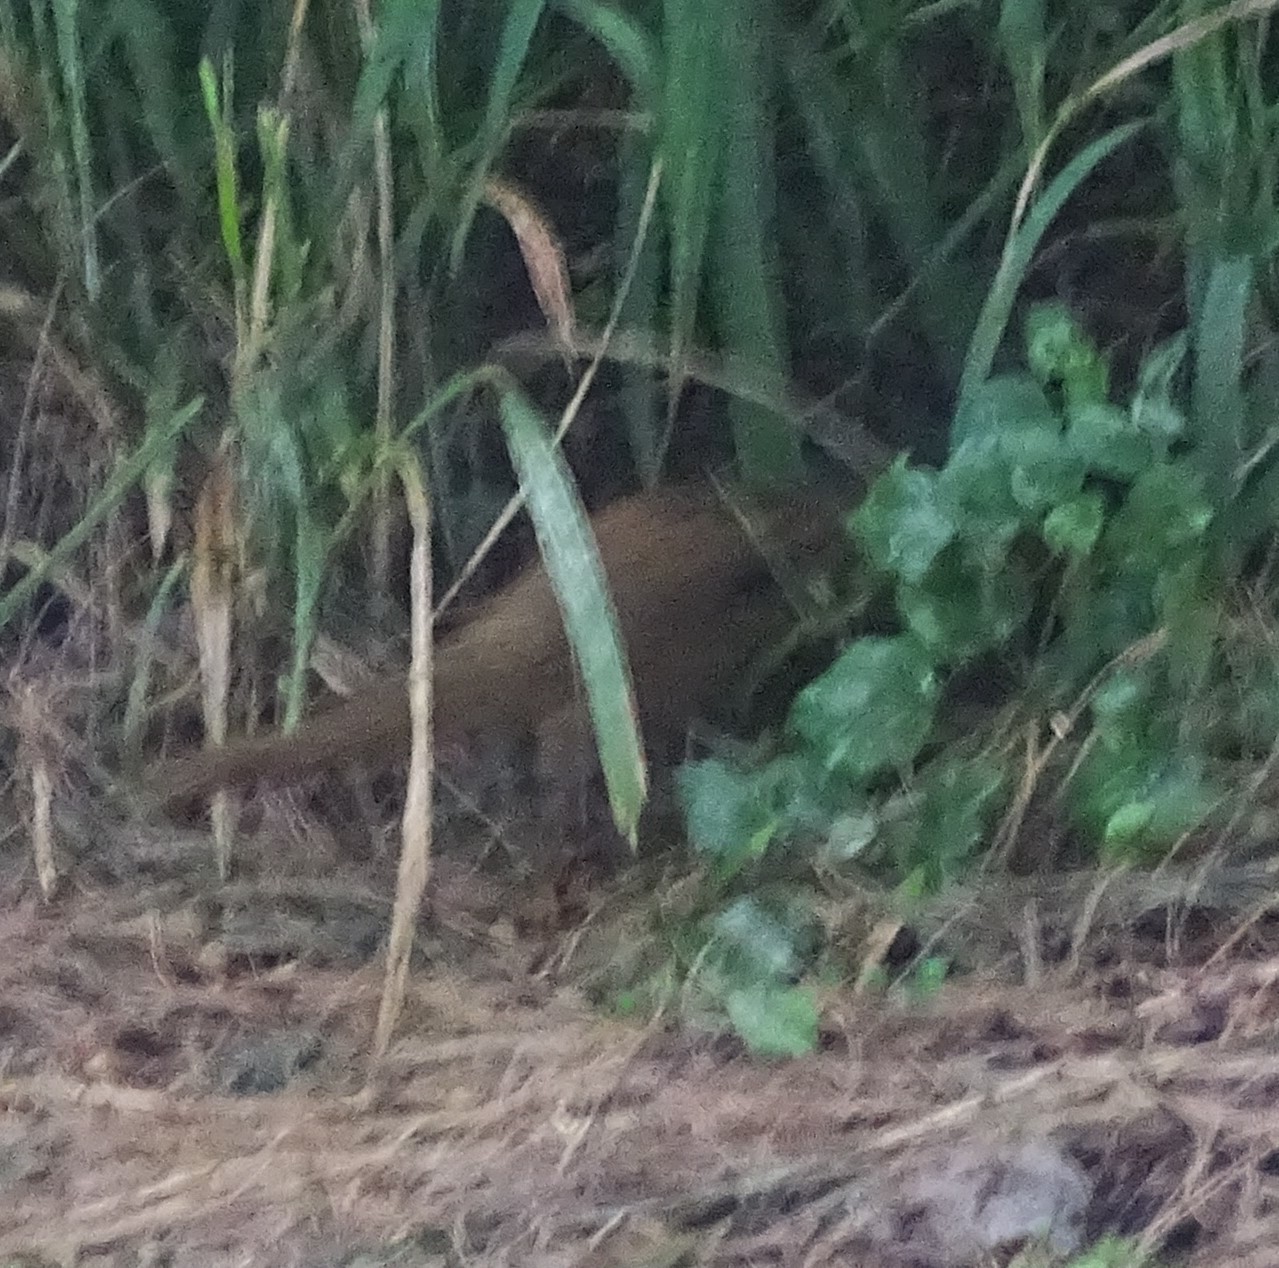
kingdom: Animalia
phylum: Chordata
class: Mammalia
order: Carnivora
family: Herpestidae
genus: Herpestes
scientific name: Herpestes javanicus
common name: Small asian mongoose
